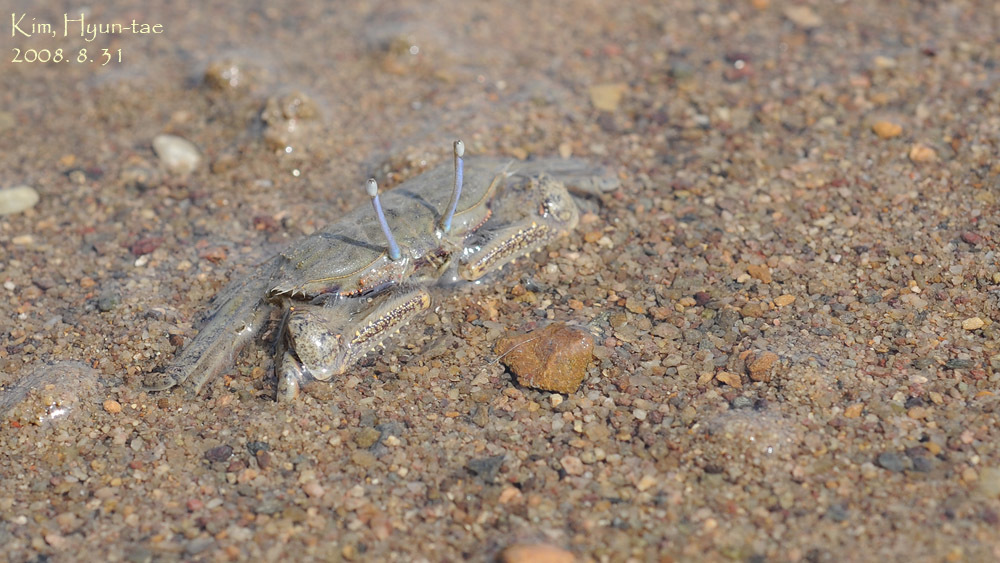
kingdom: Animalia
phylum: Arthropoda
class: Malacostraca
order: Decapoda
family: Macrophthalmidae
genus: Macrophthalmus
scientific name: Macrophthalmus abbreviatus
